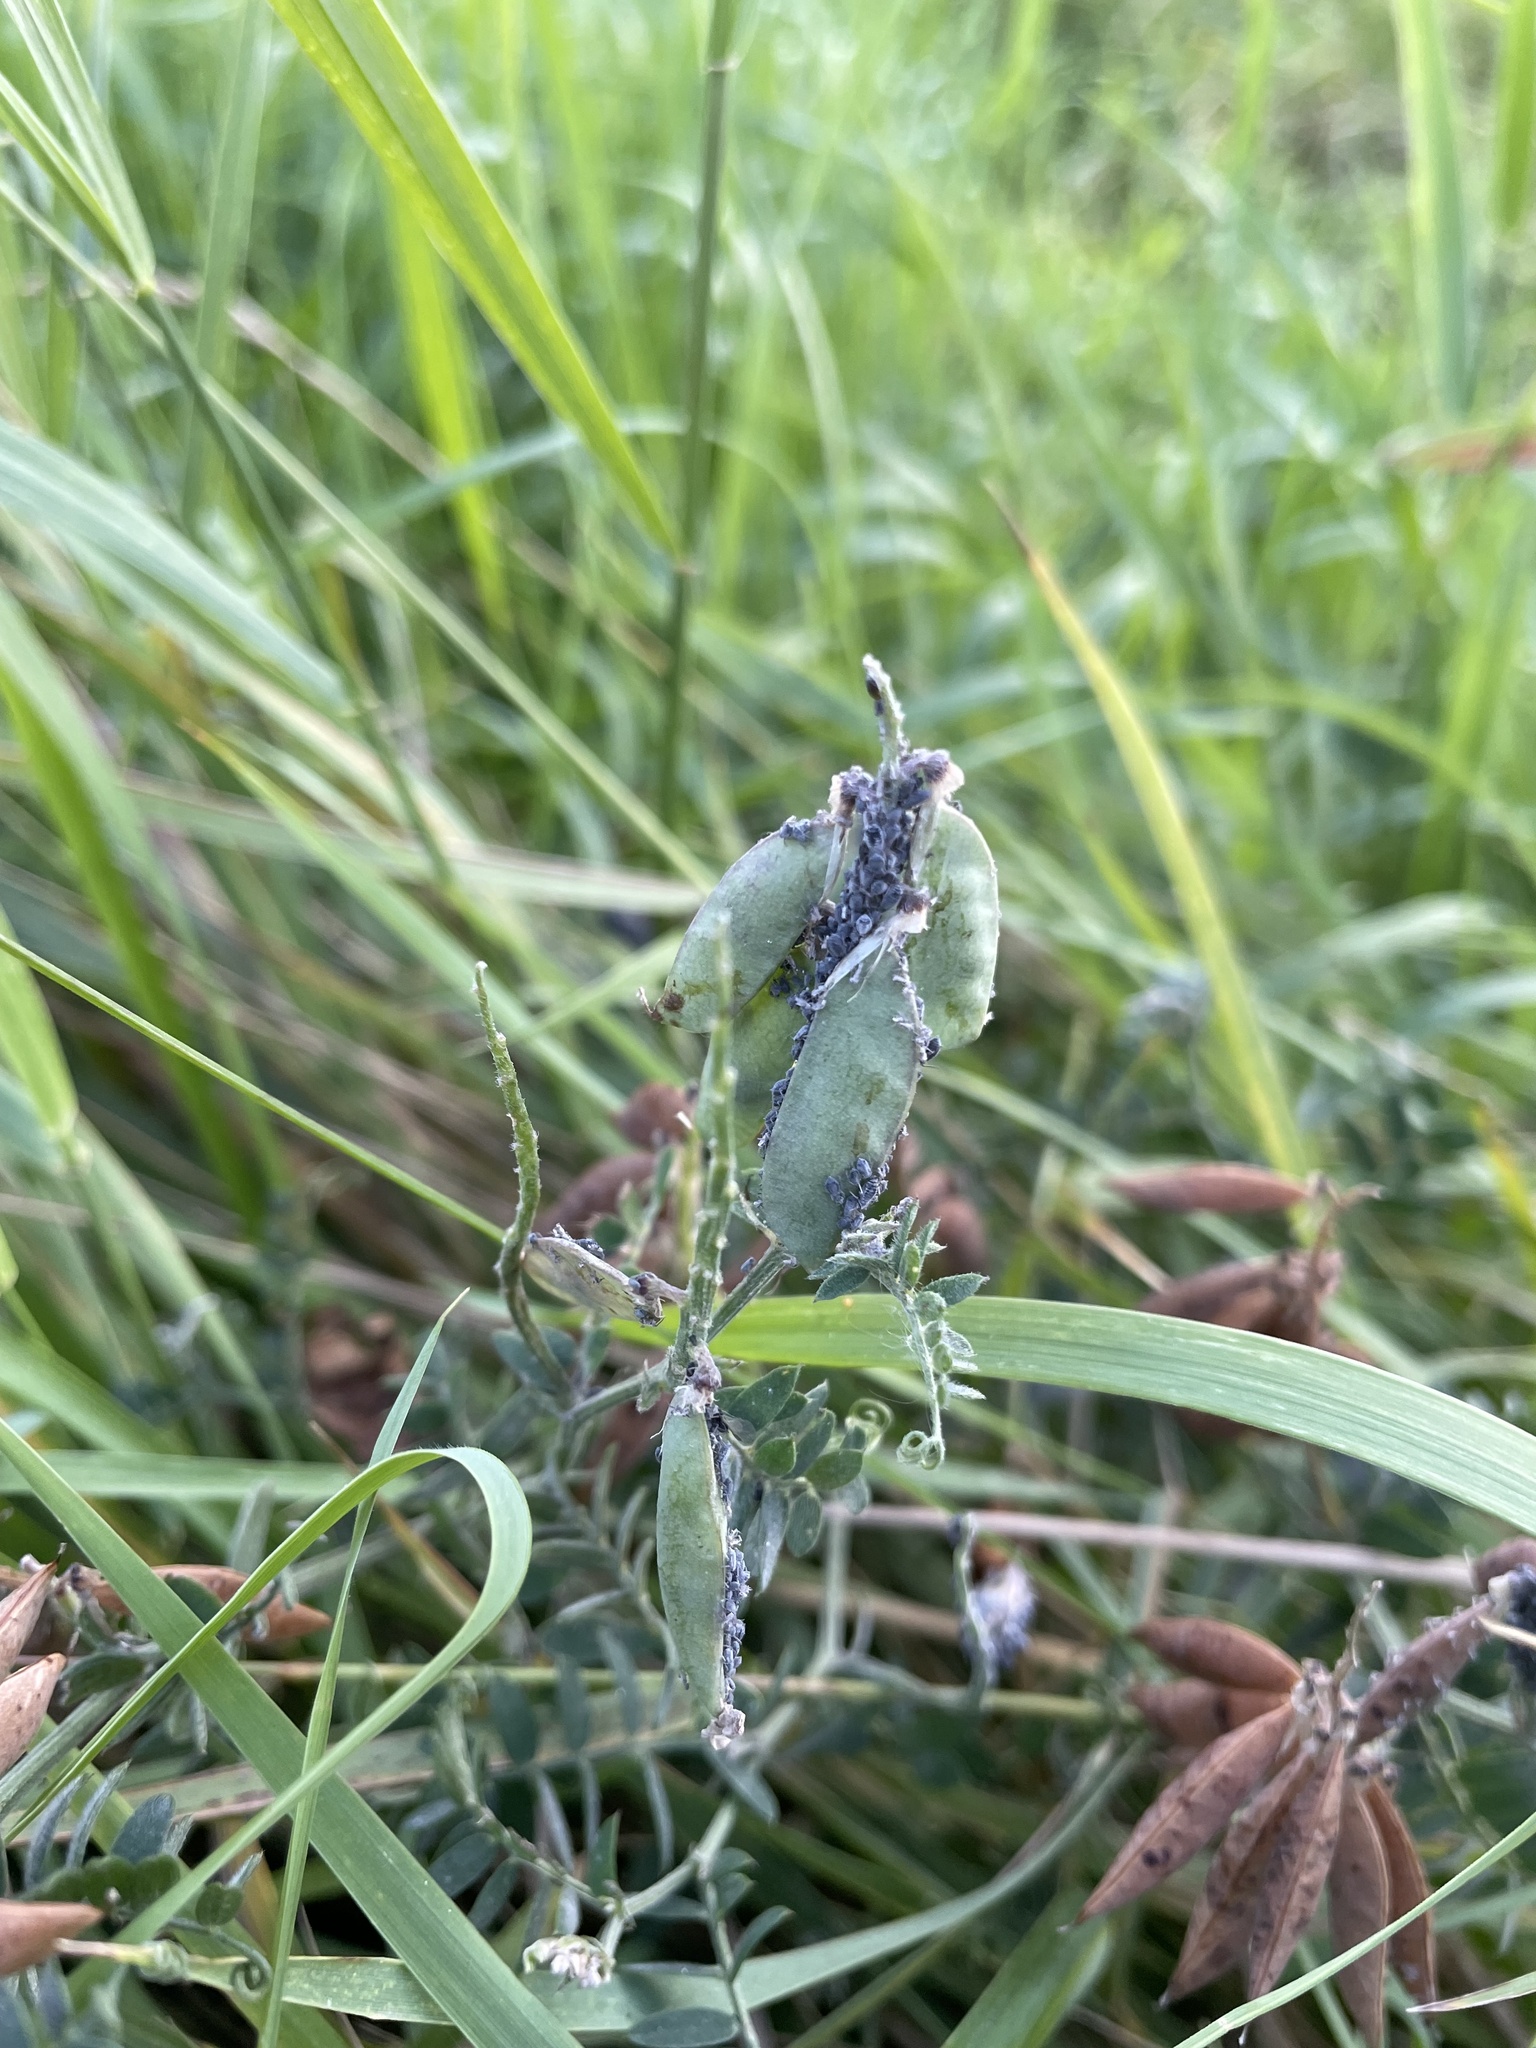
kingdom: Plantae
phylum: Tracheophyta
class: Magnoliopsida
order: Fabales
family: Fabaceae
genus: Vicia
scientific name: Vicia cracca
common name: Bird vetch
